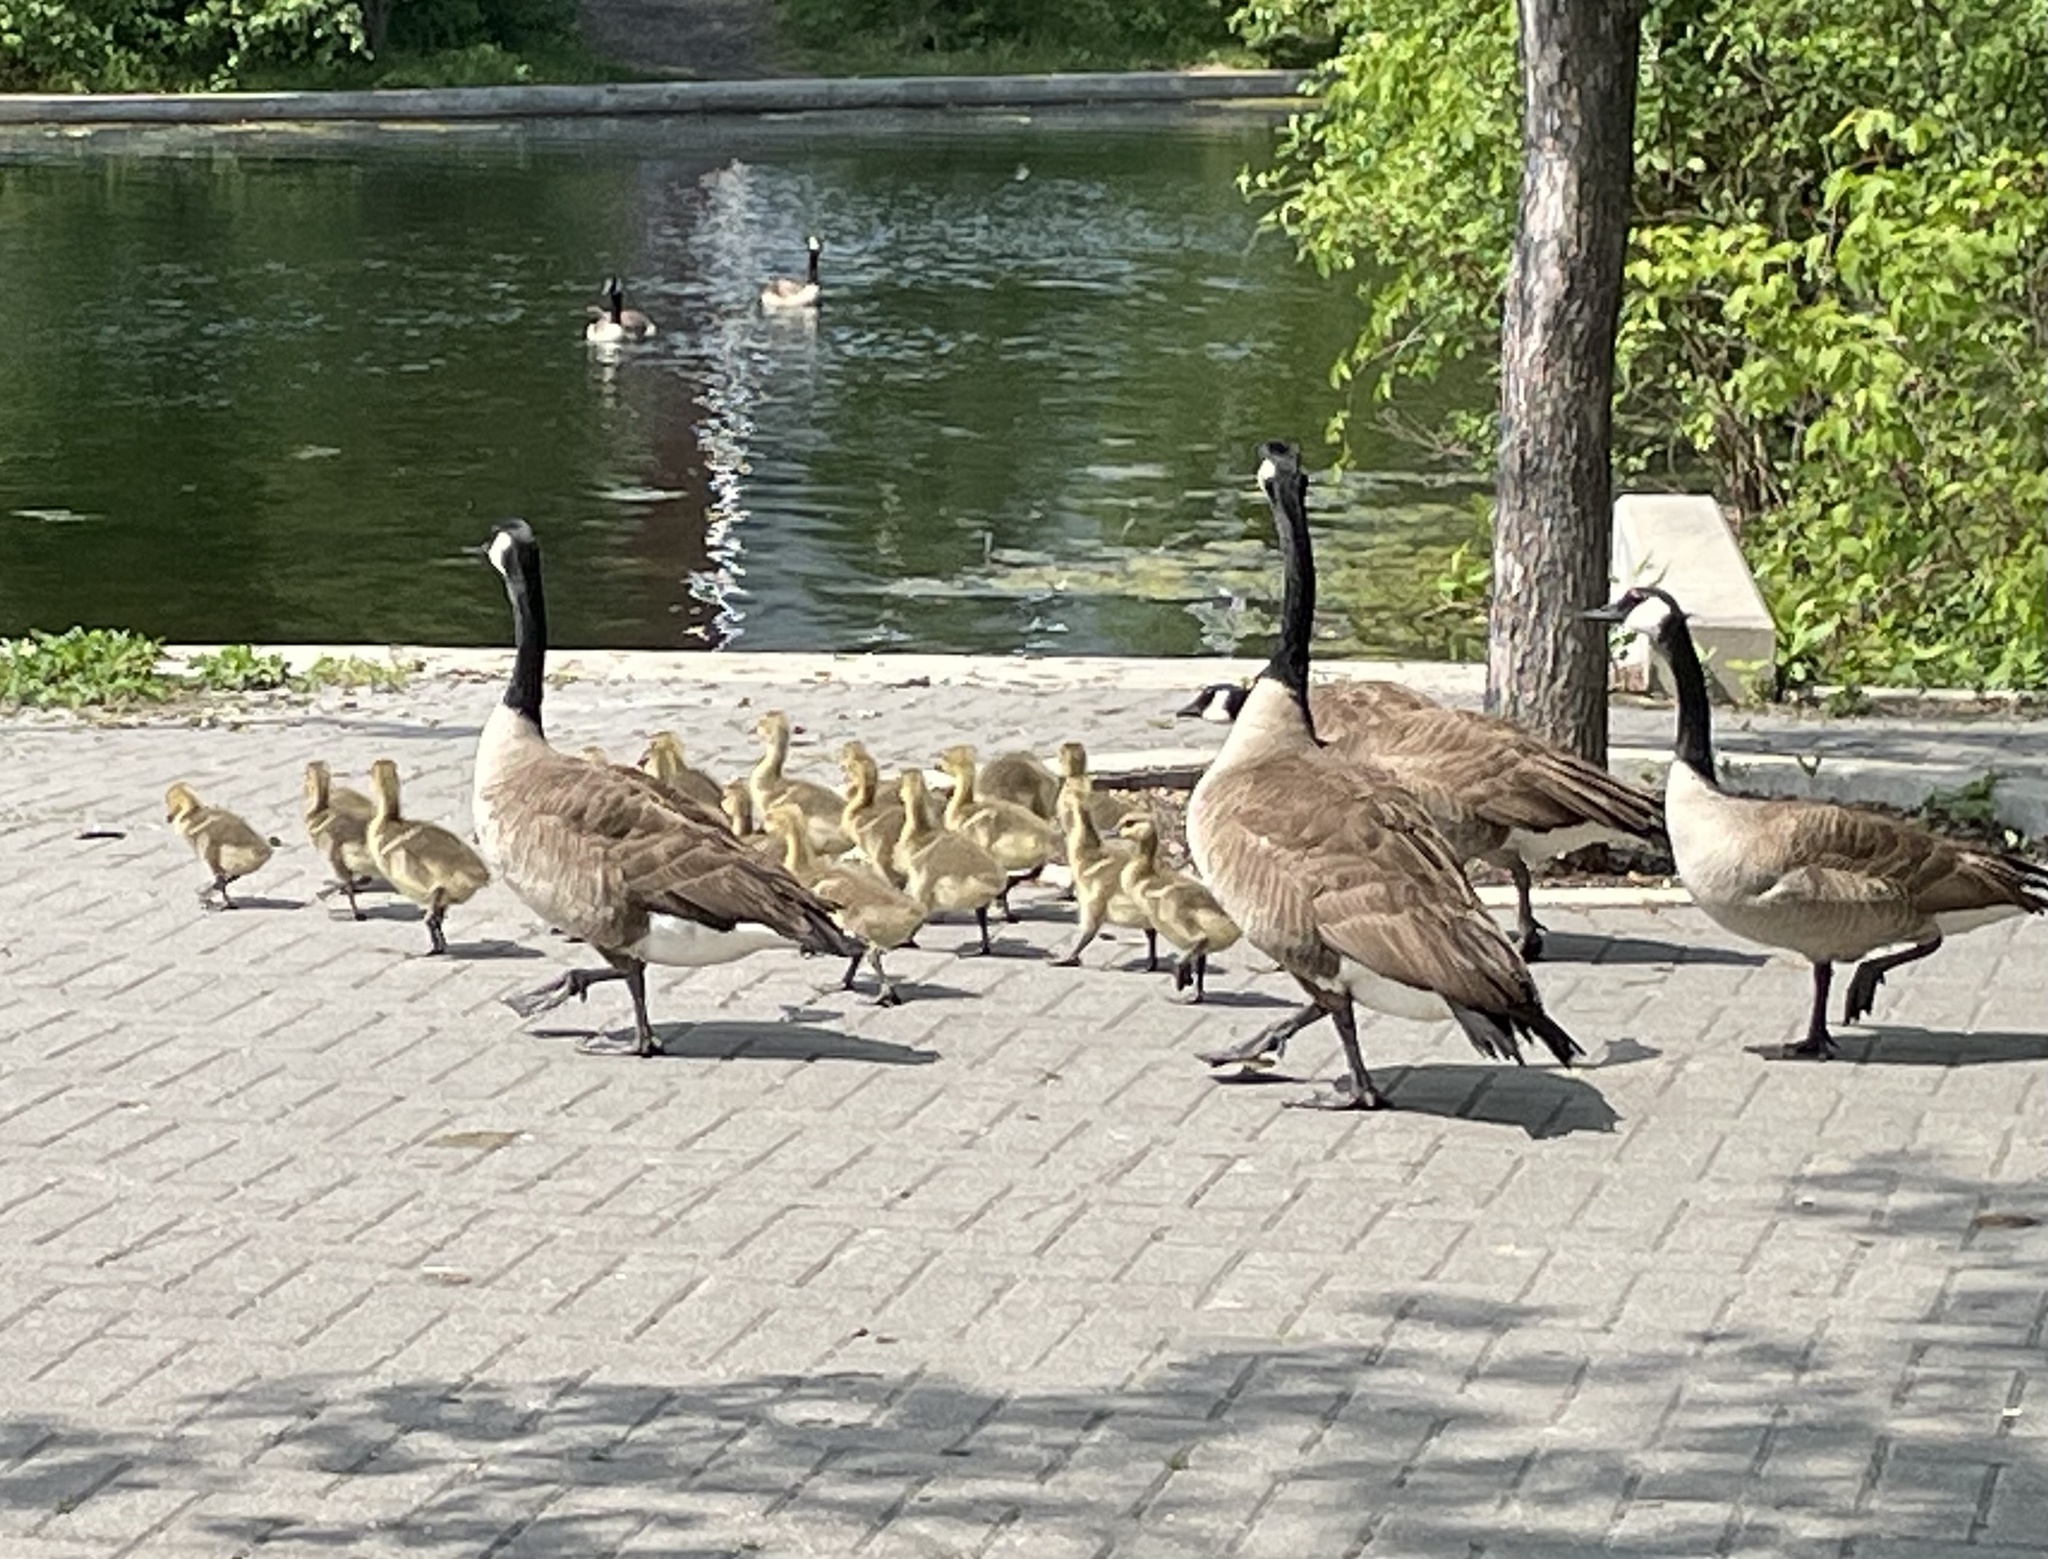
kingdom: Animalia
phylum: Chordata
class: Aves
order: Anseriformes
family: Anatidae
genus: Branta
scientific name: Branta canadensis
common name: Canada goose
